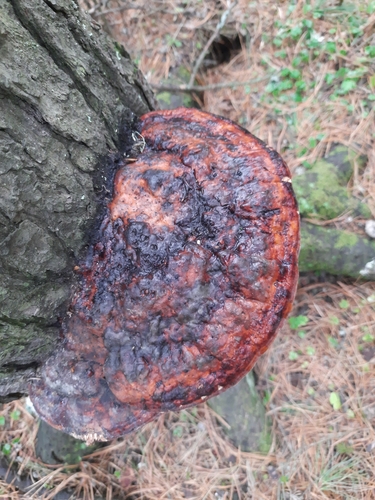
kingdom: Fungi
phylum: Basidiomycota
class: Agaricomycetes
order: Polyporales
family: Fomitopsidaceae
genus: Fomitopsis
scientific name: Fomitopsis pinicola
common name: Red-belted bracket
